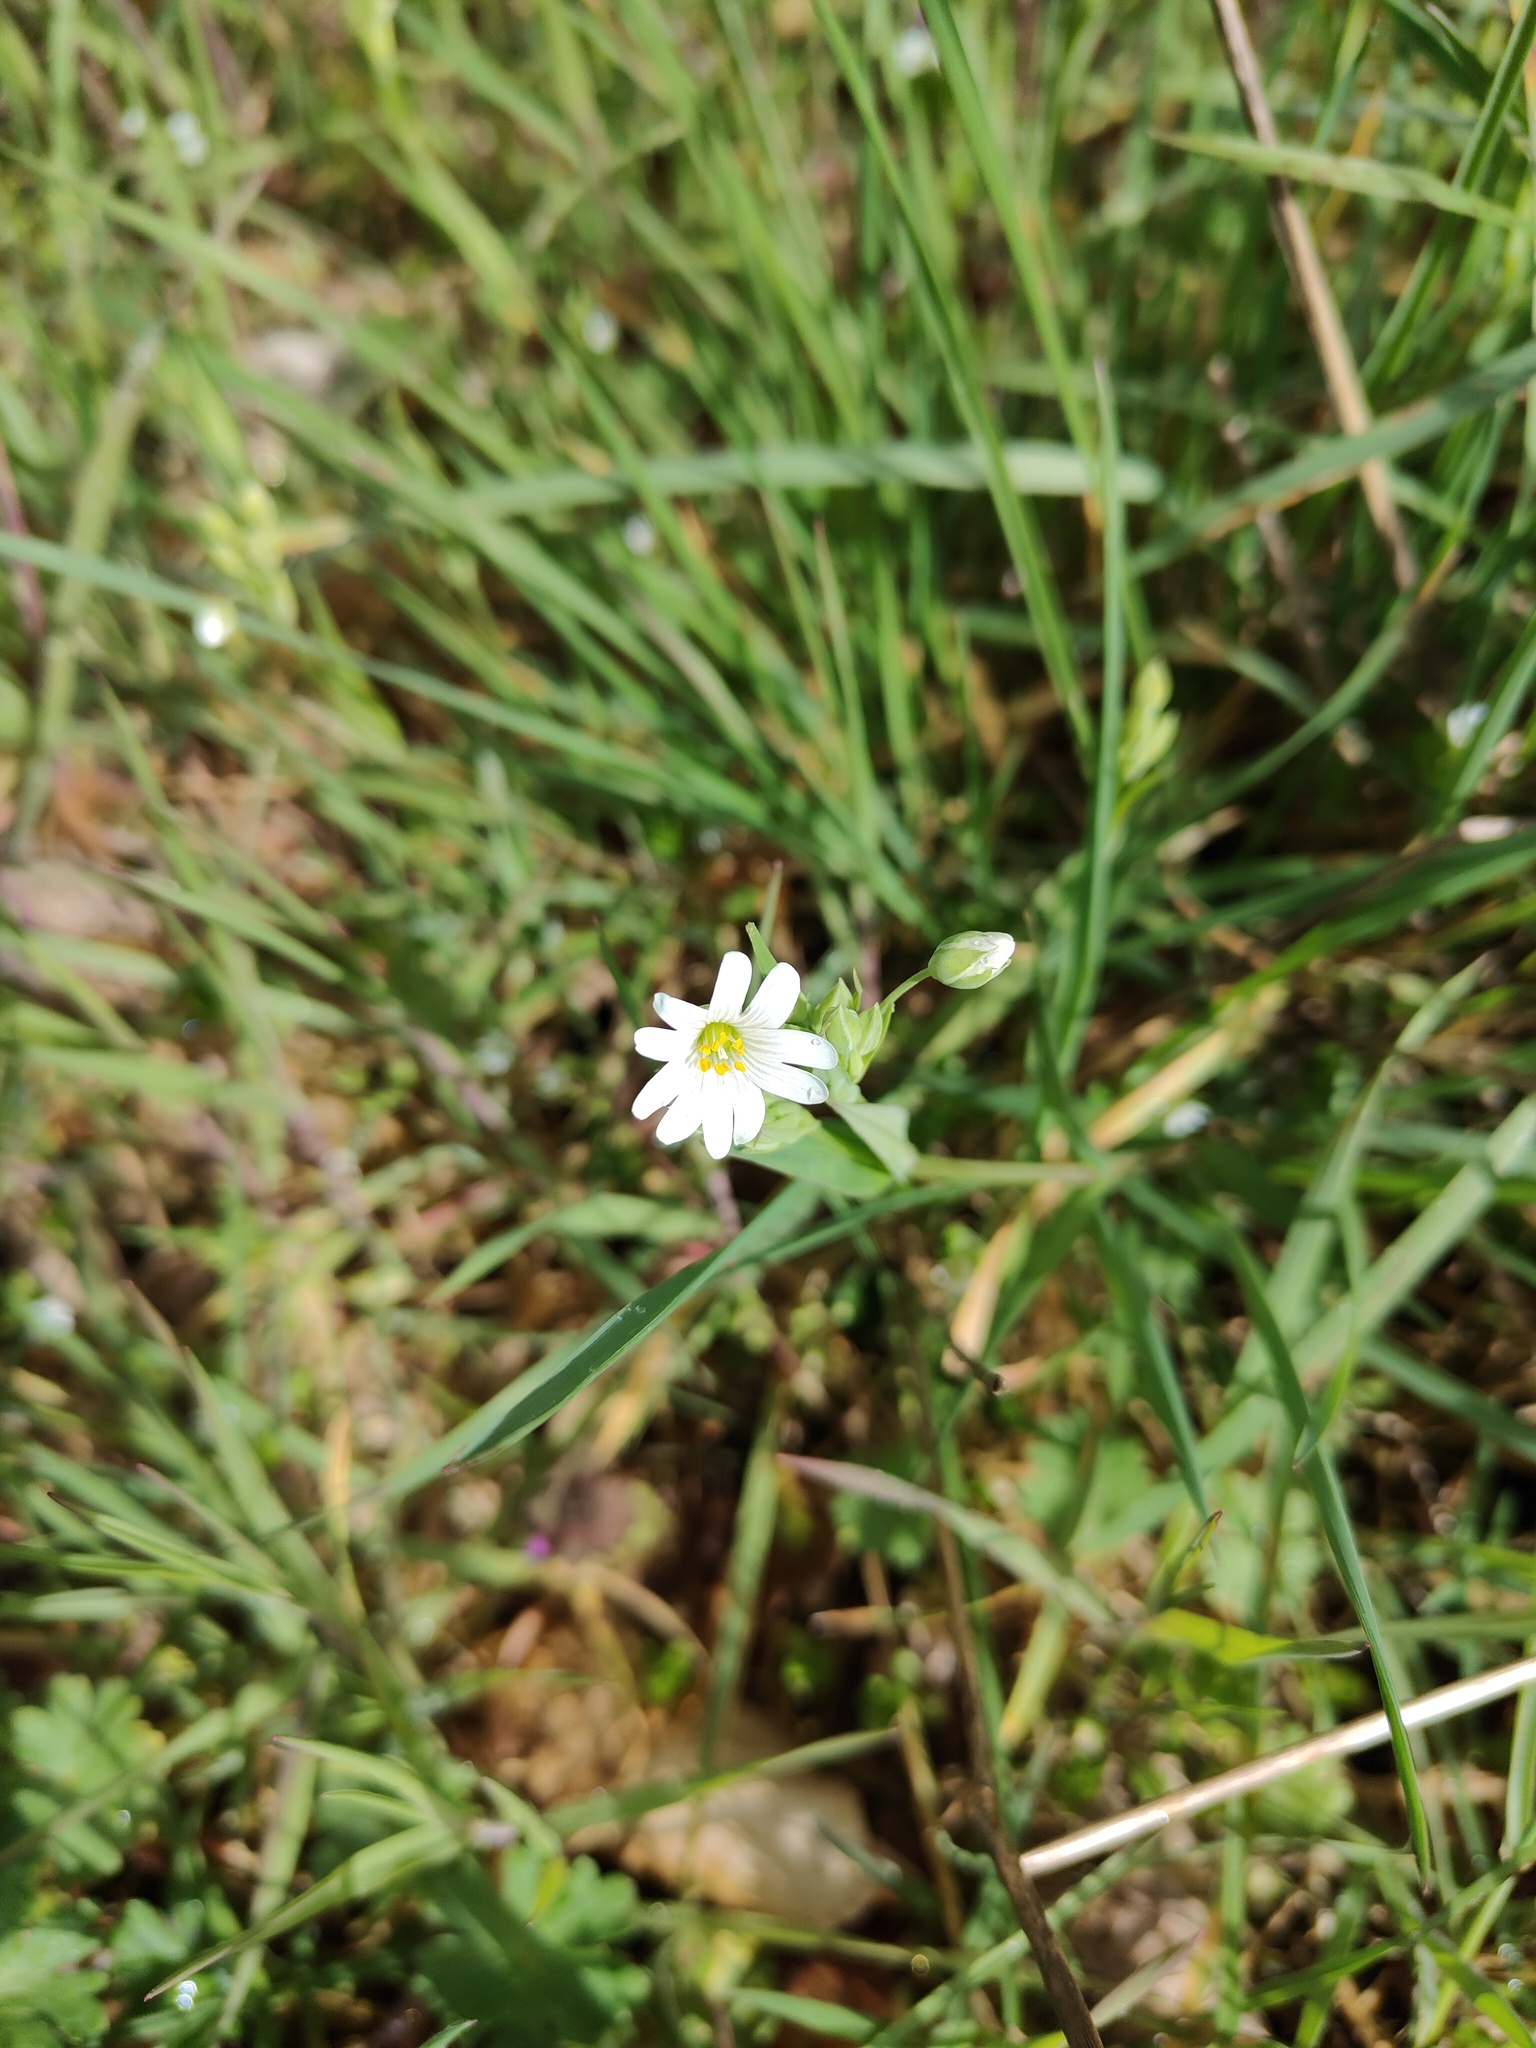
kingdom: Plantae
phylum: Tracheophyta
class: Magnoliopsida
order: Caryophyllales
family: Caryophyllaceae
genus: Rabelera
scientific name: Rabelera holostea
